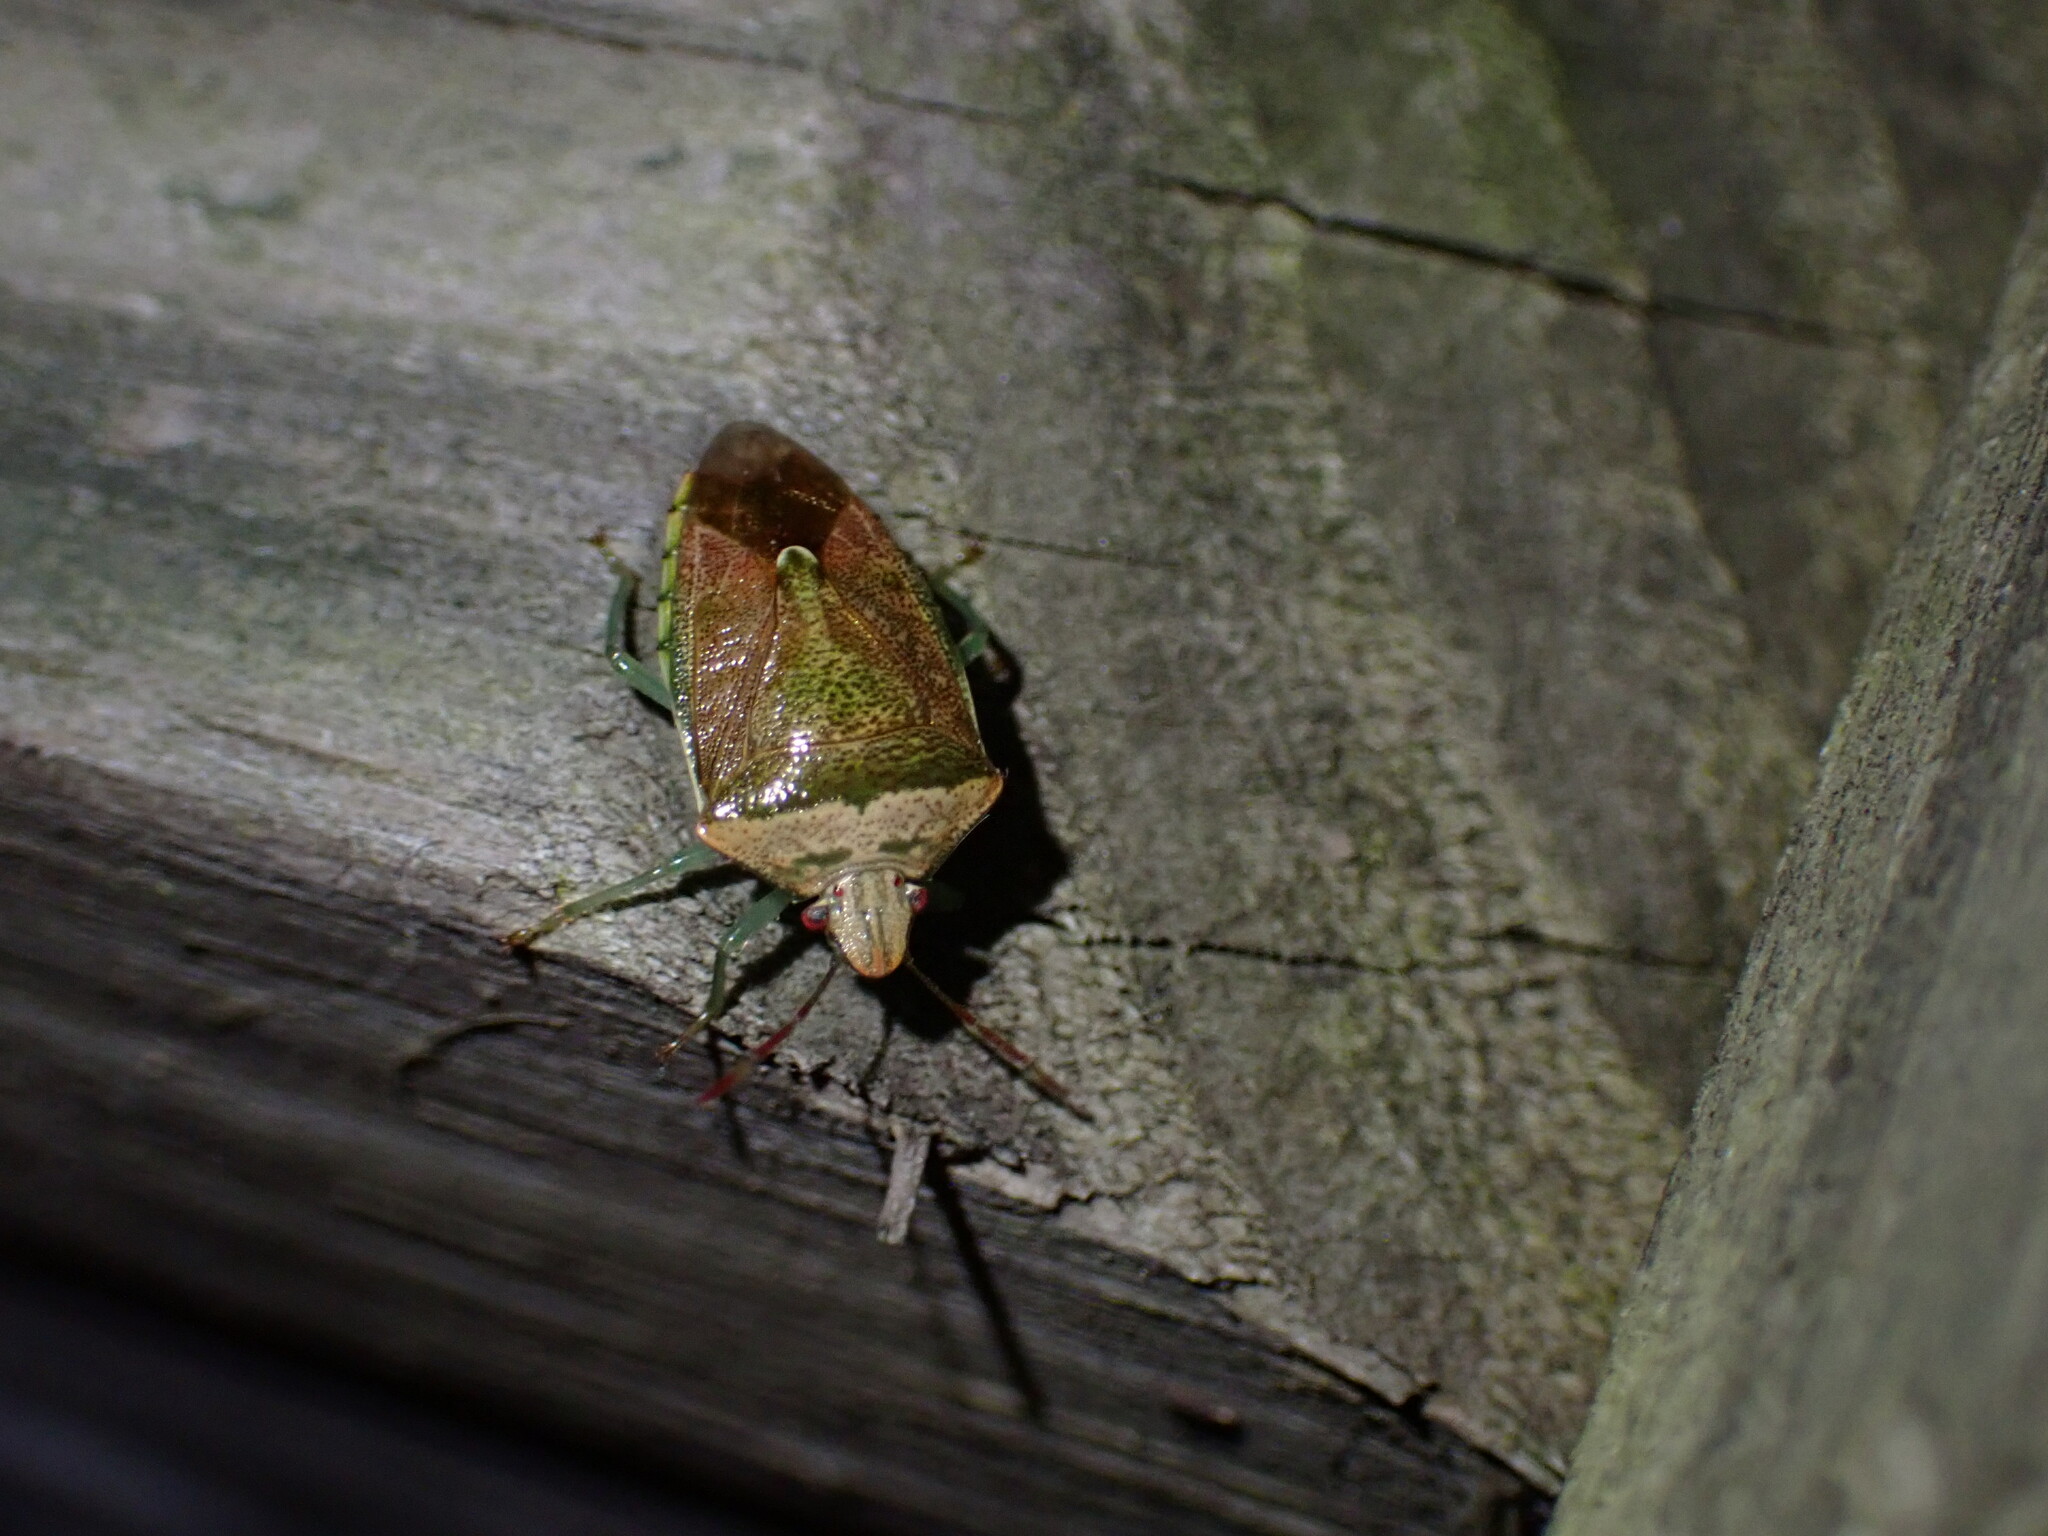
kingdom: Animalia
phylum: Arthropoda
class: Insecta
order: Hemiptera
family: Pentatomidae
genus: Banasa
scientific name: Banasa calva
